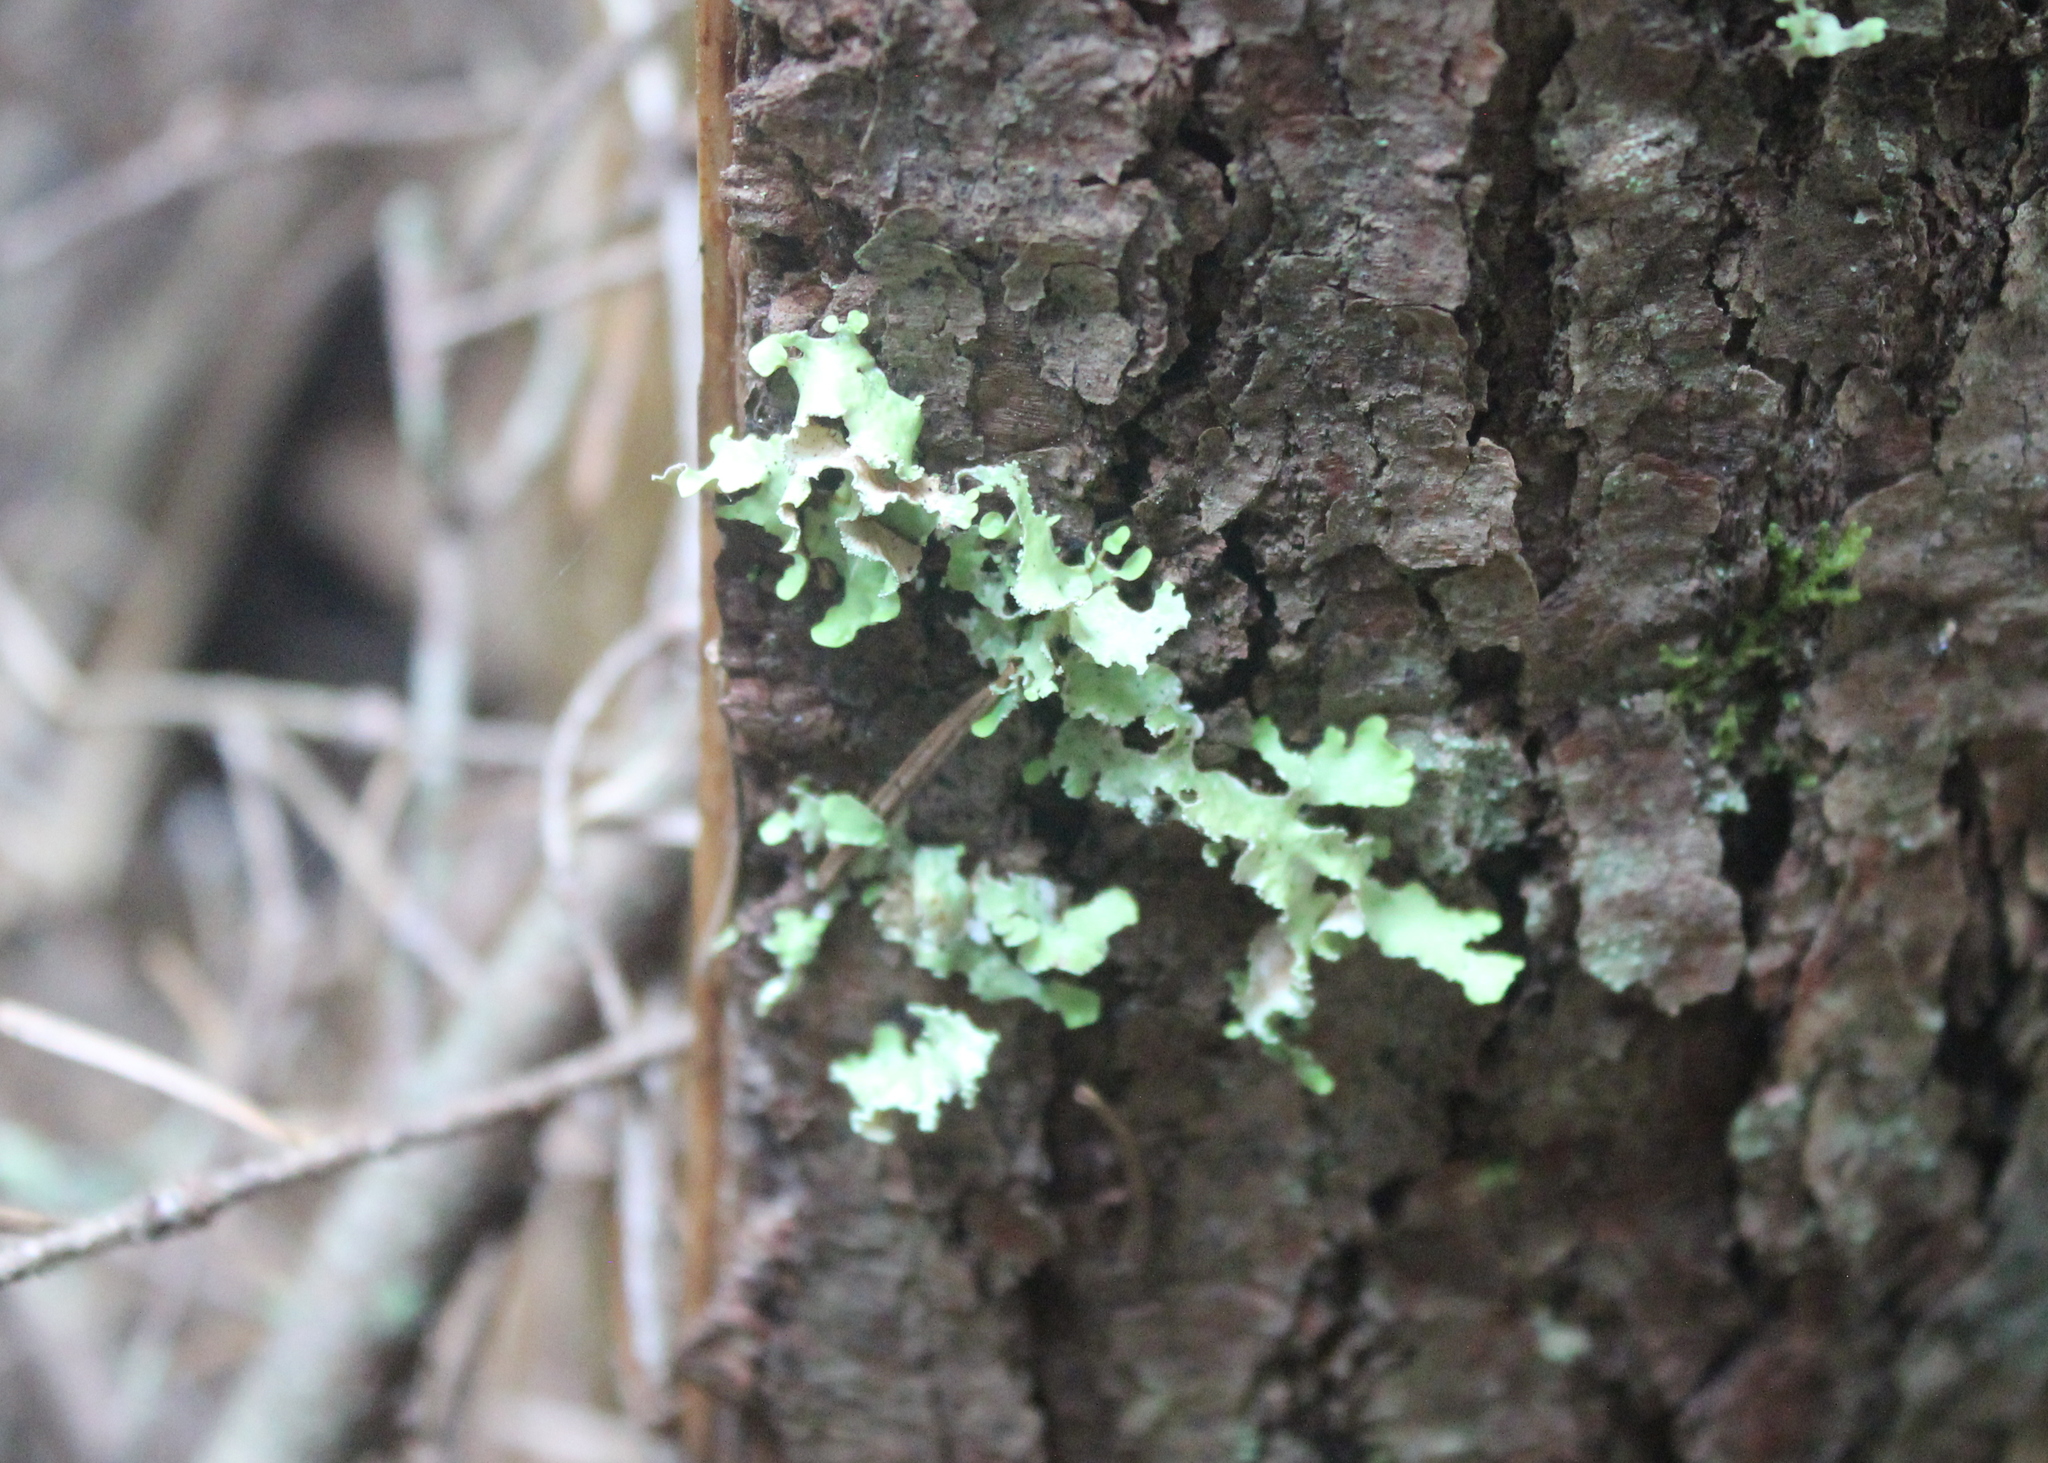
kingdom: Fungi
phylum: Ascomycota
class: Lecanoromycetes
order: Lecanorales
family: Parmeliaceae
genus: Usnocetraria
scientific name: Usnocetraria oakesiana
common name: Yellow ribbon lichen
